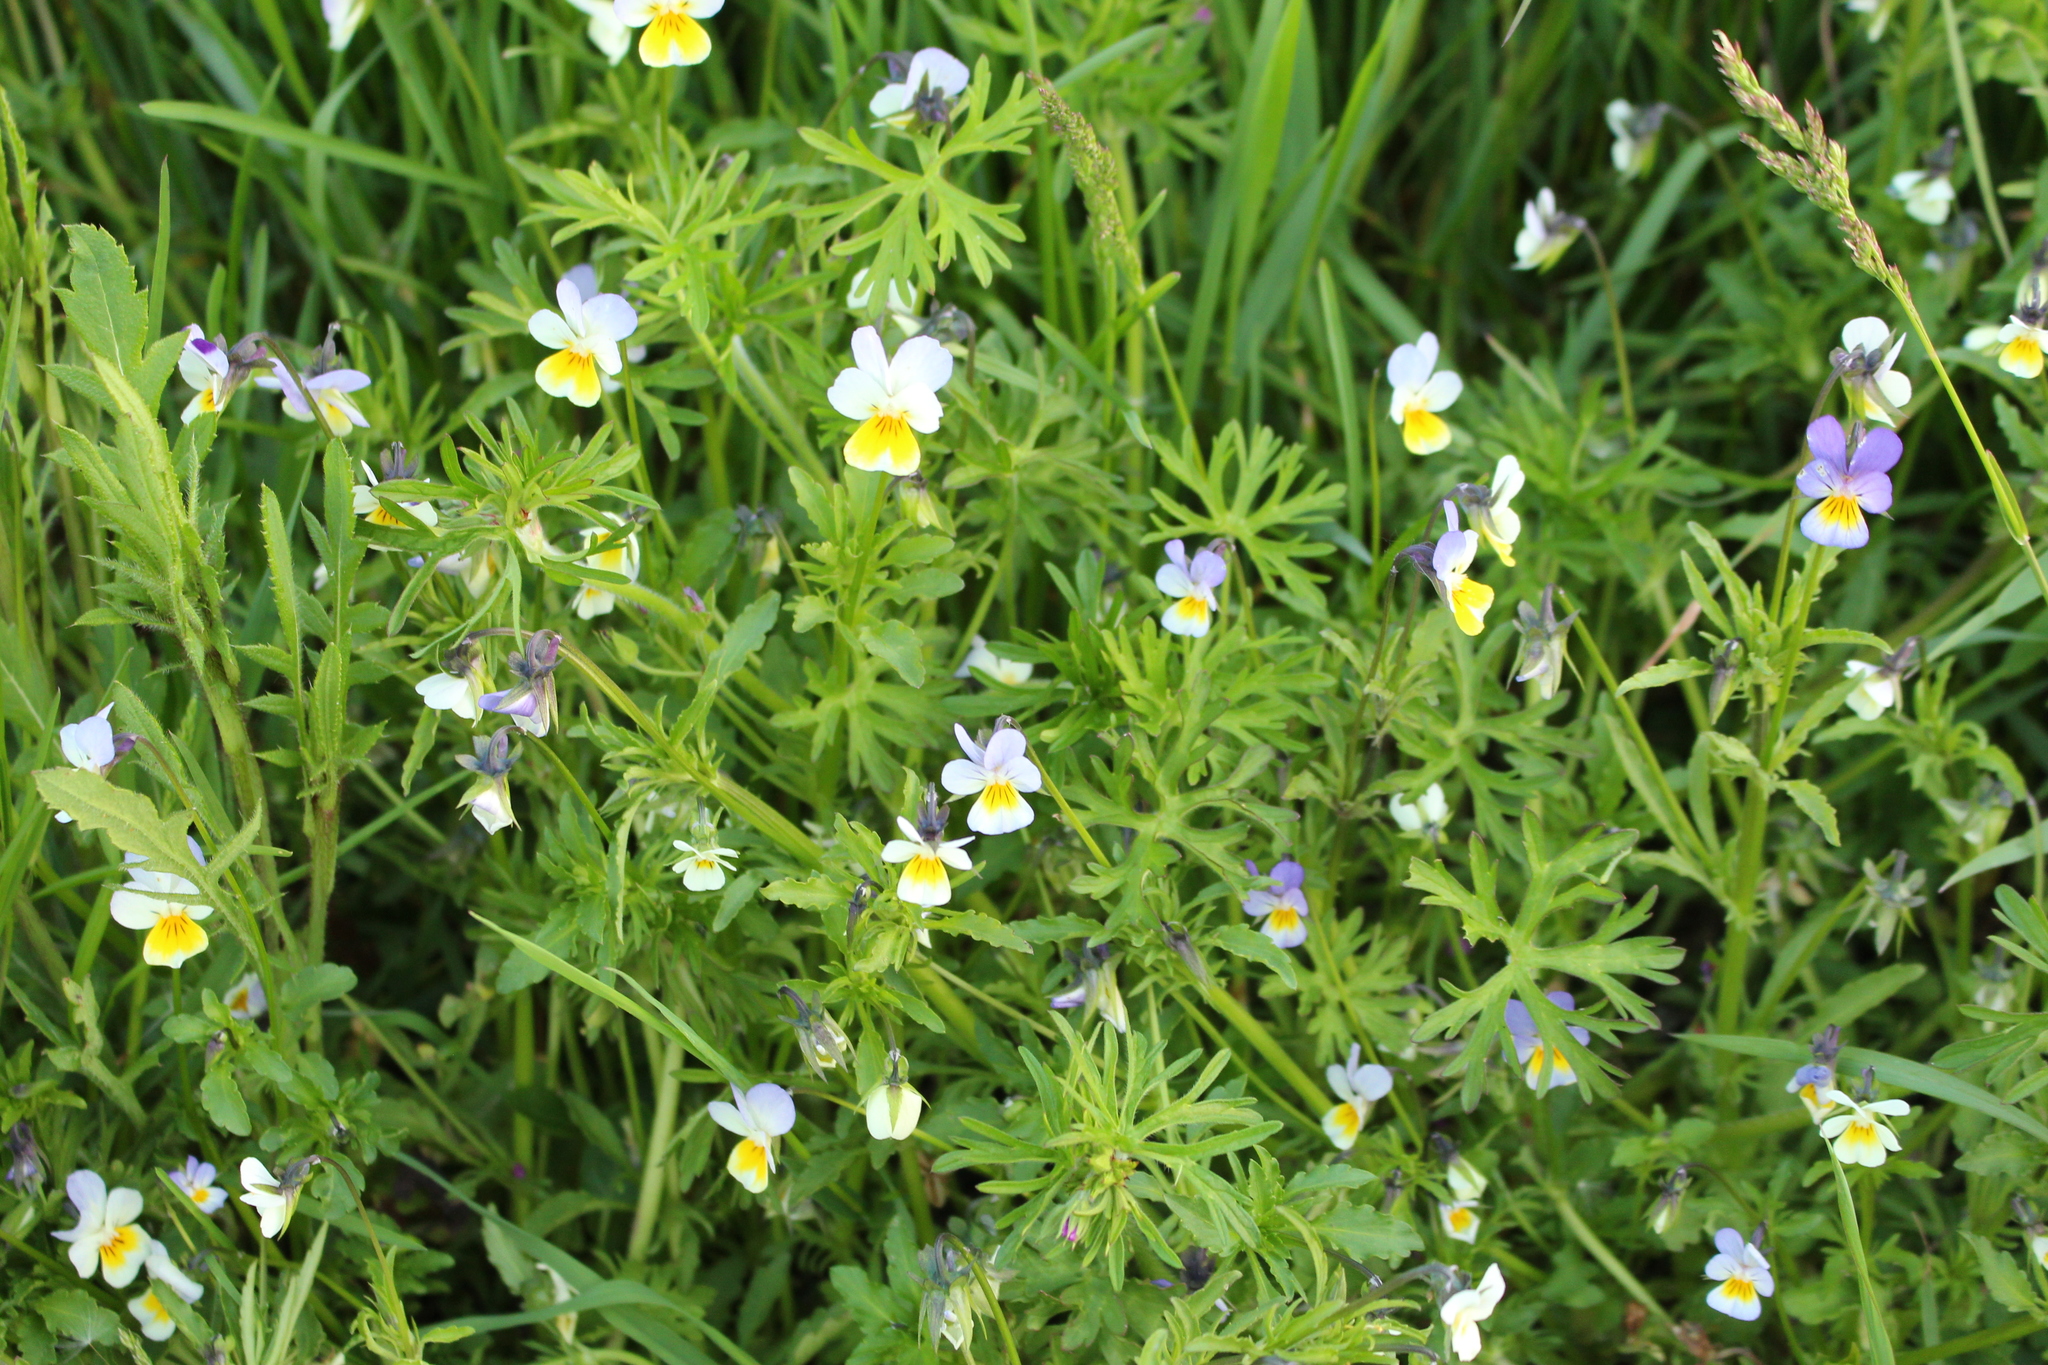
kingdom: Plantae
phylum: Tracheophyta
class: Magnoliopsida
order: Malpighiales
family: Violaceae
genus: Viola
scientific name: Viola arvensis
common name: Field pansy
